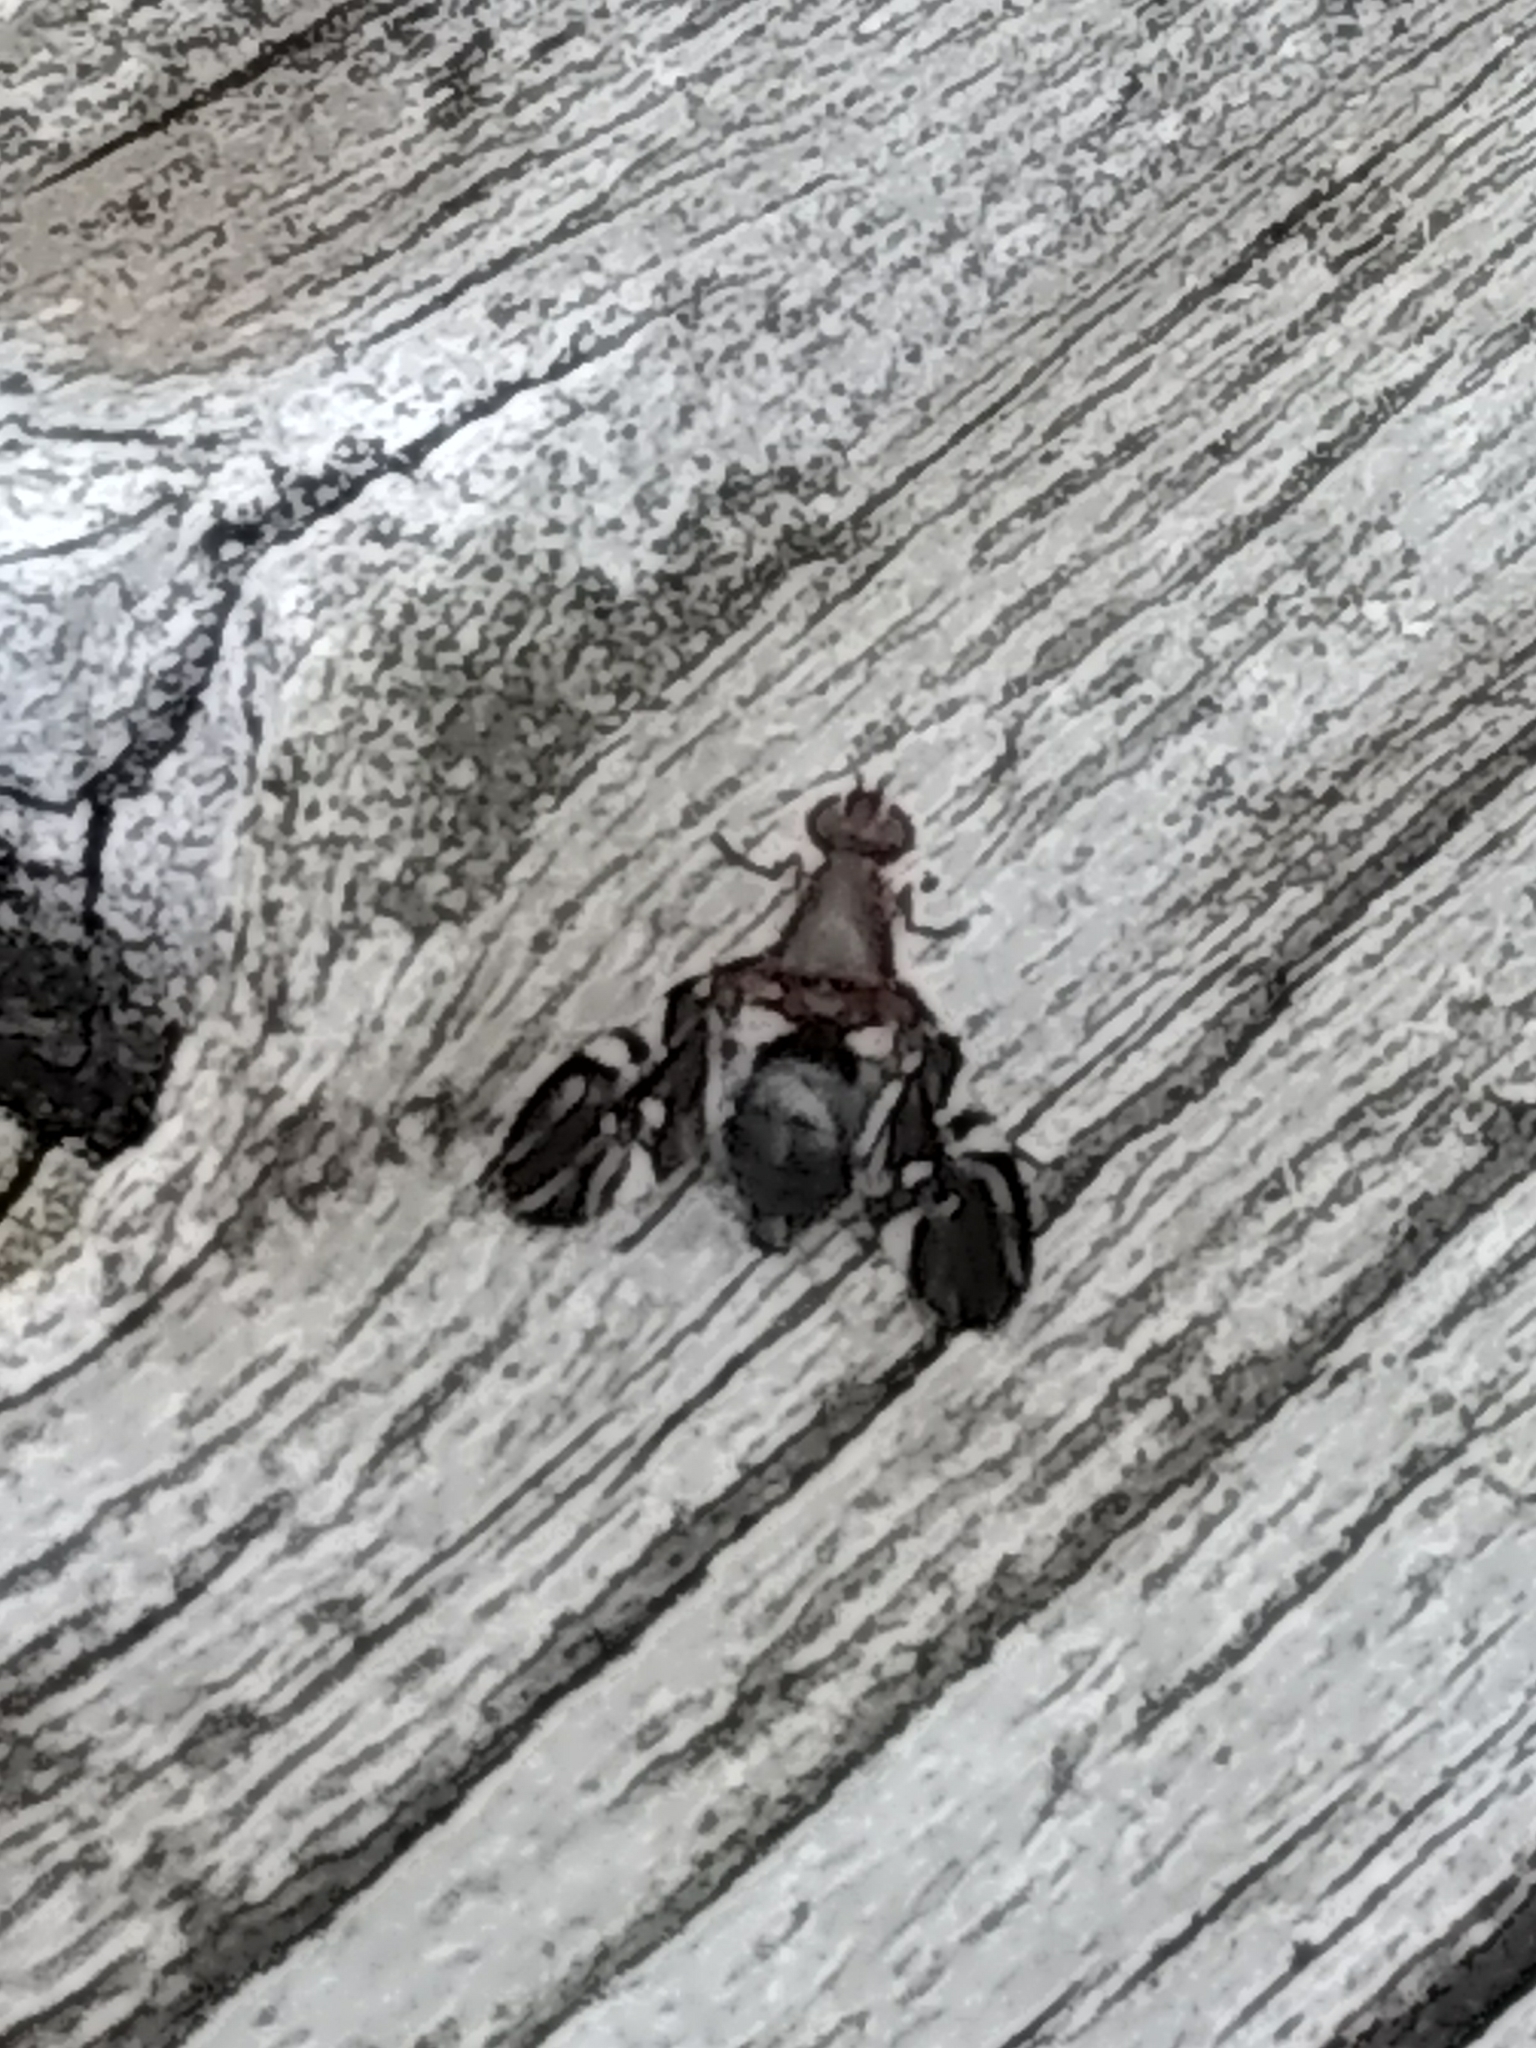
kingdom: Animalia
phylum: Arthropoda
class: Insecta
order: Diptera
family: Ulidiidae
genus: Delphinia
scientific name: Delphinia picta
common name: Common picture-winged fly
